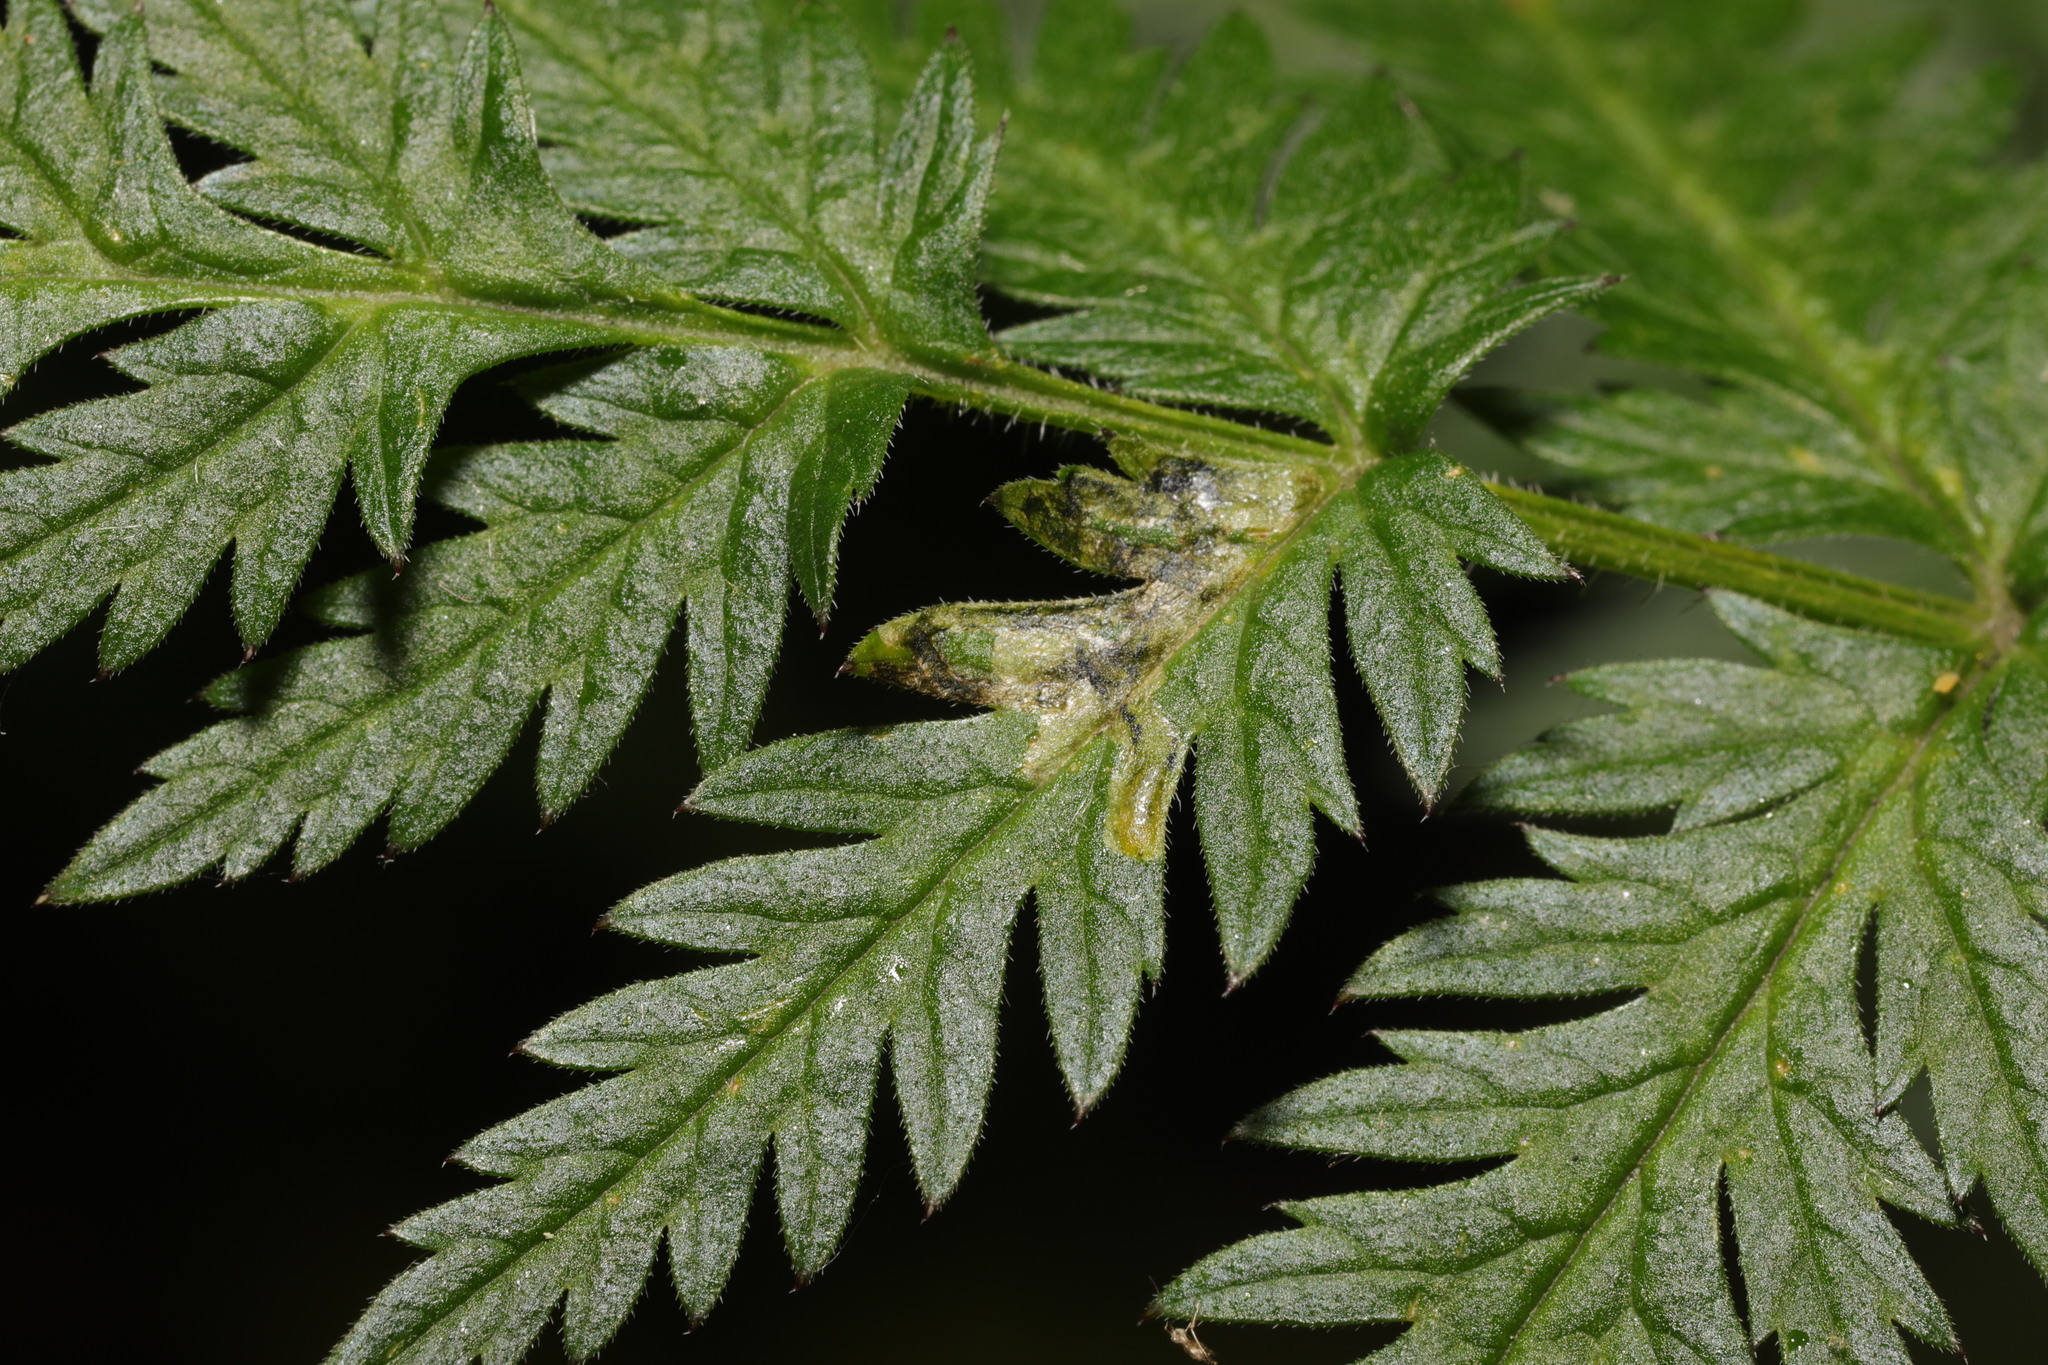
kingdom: Animalia
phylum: Arthropoda
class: Insecta
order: Diptera
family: Agromyzidae
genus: Phytomyza
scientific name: Phytomyza chaerophylli
